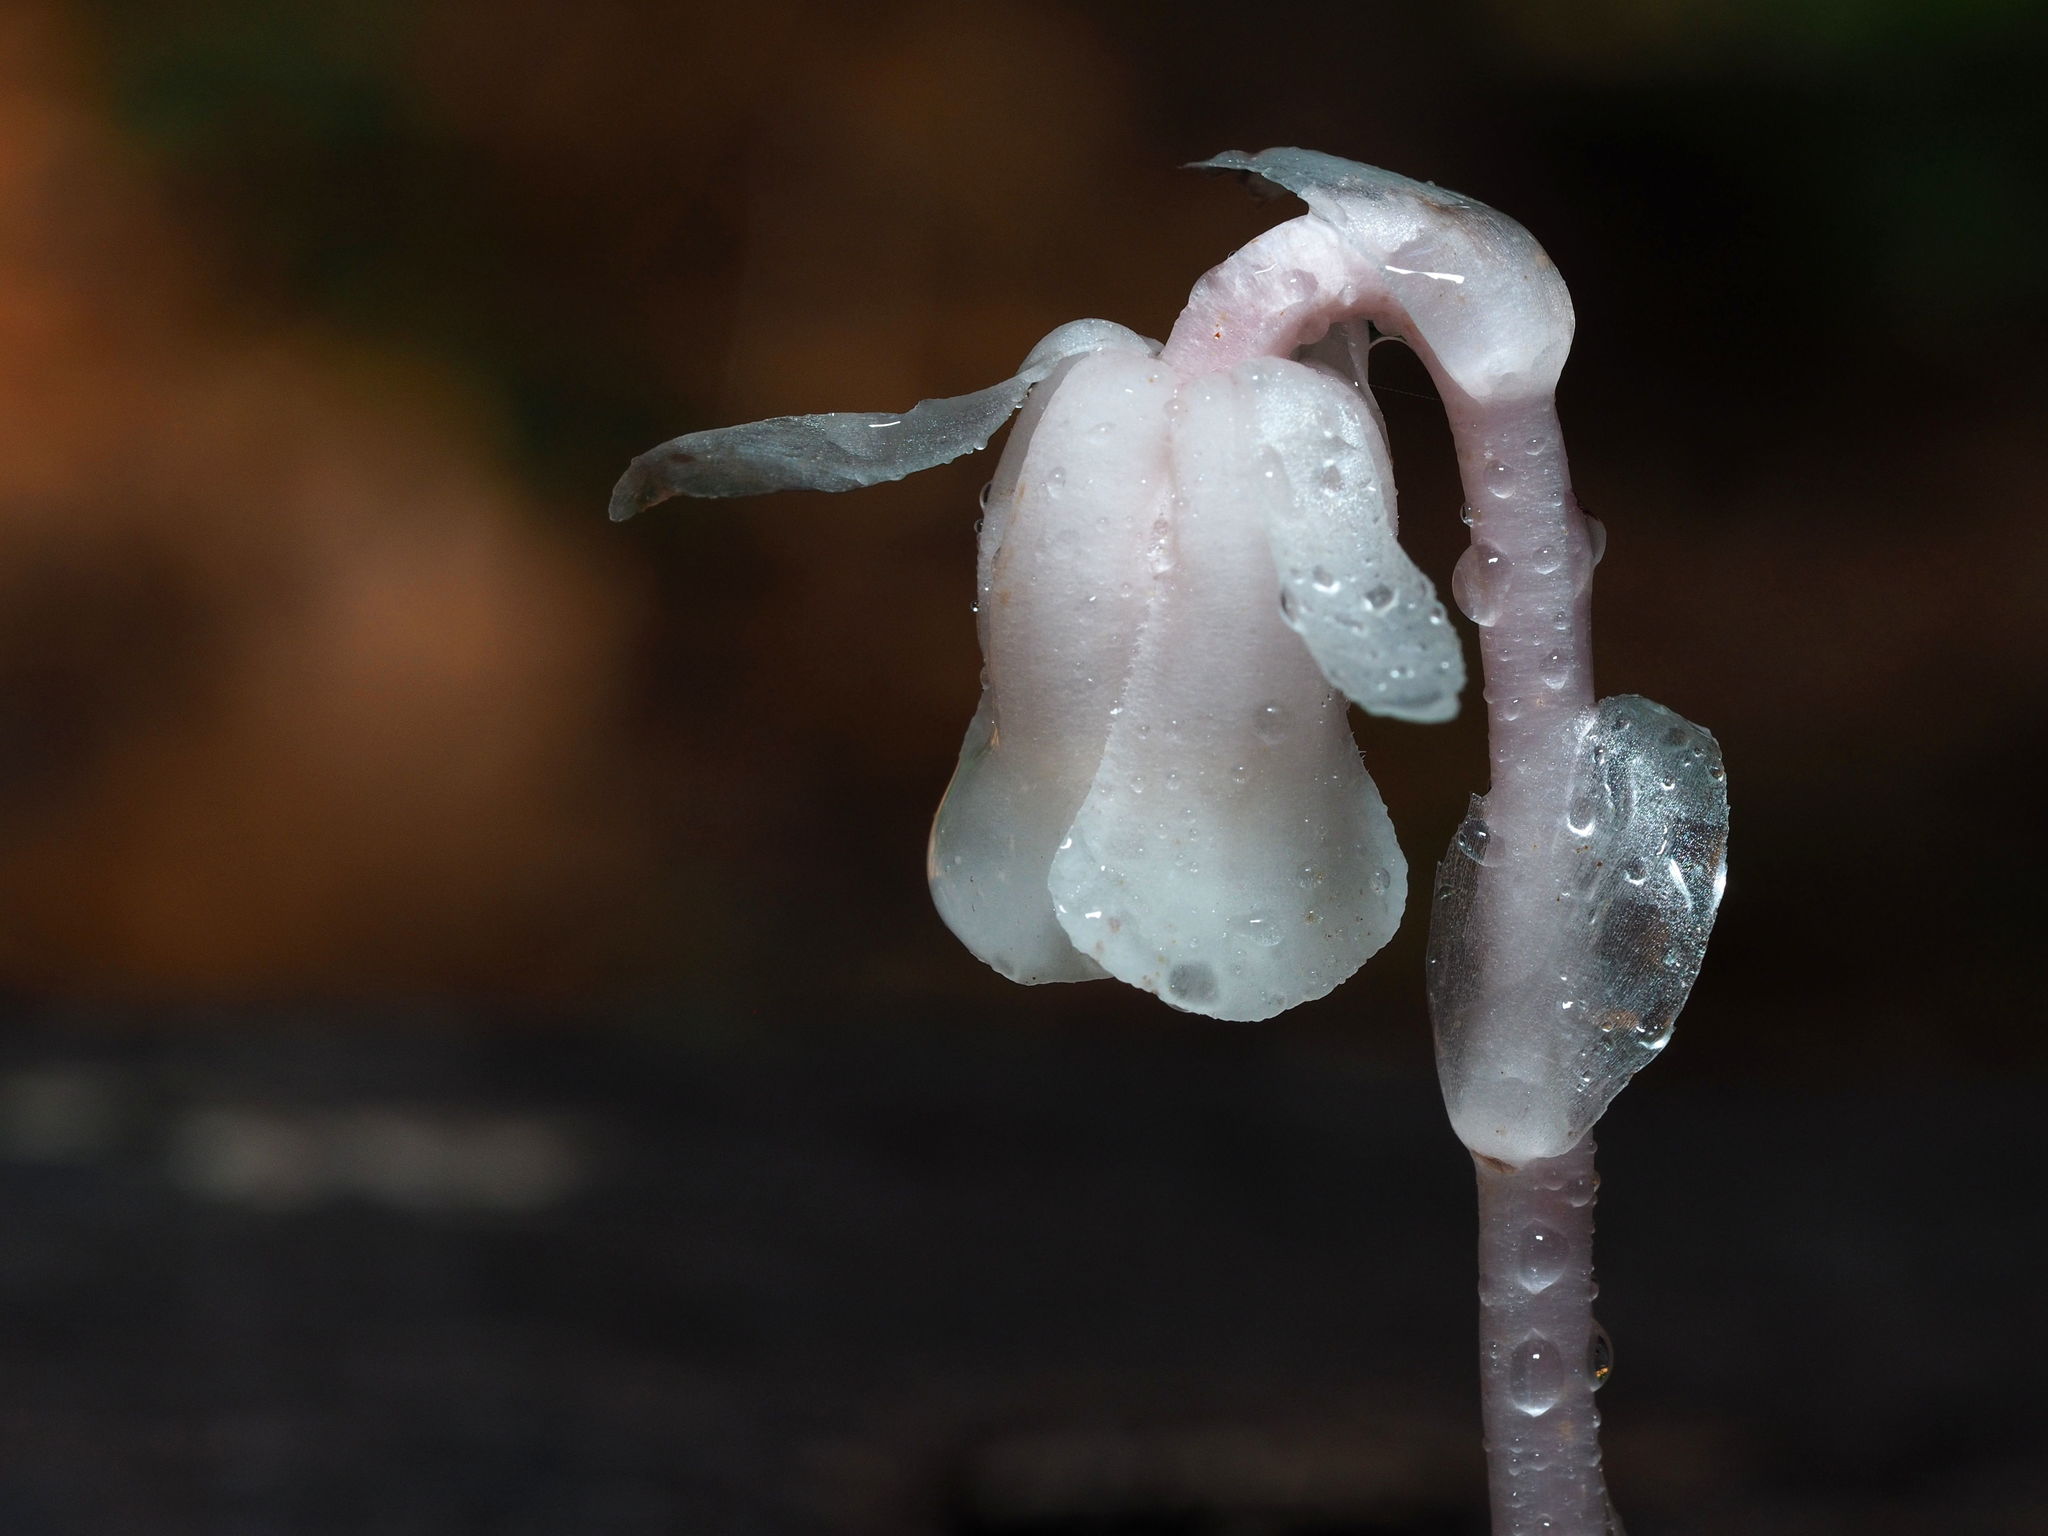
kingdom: Plantae
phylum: Tracheophyta
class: Magnoliopsida
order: Ericales
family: Ericaceae
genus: Monotropa
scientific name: Monotropa uniflora
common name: Convulsion root
